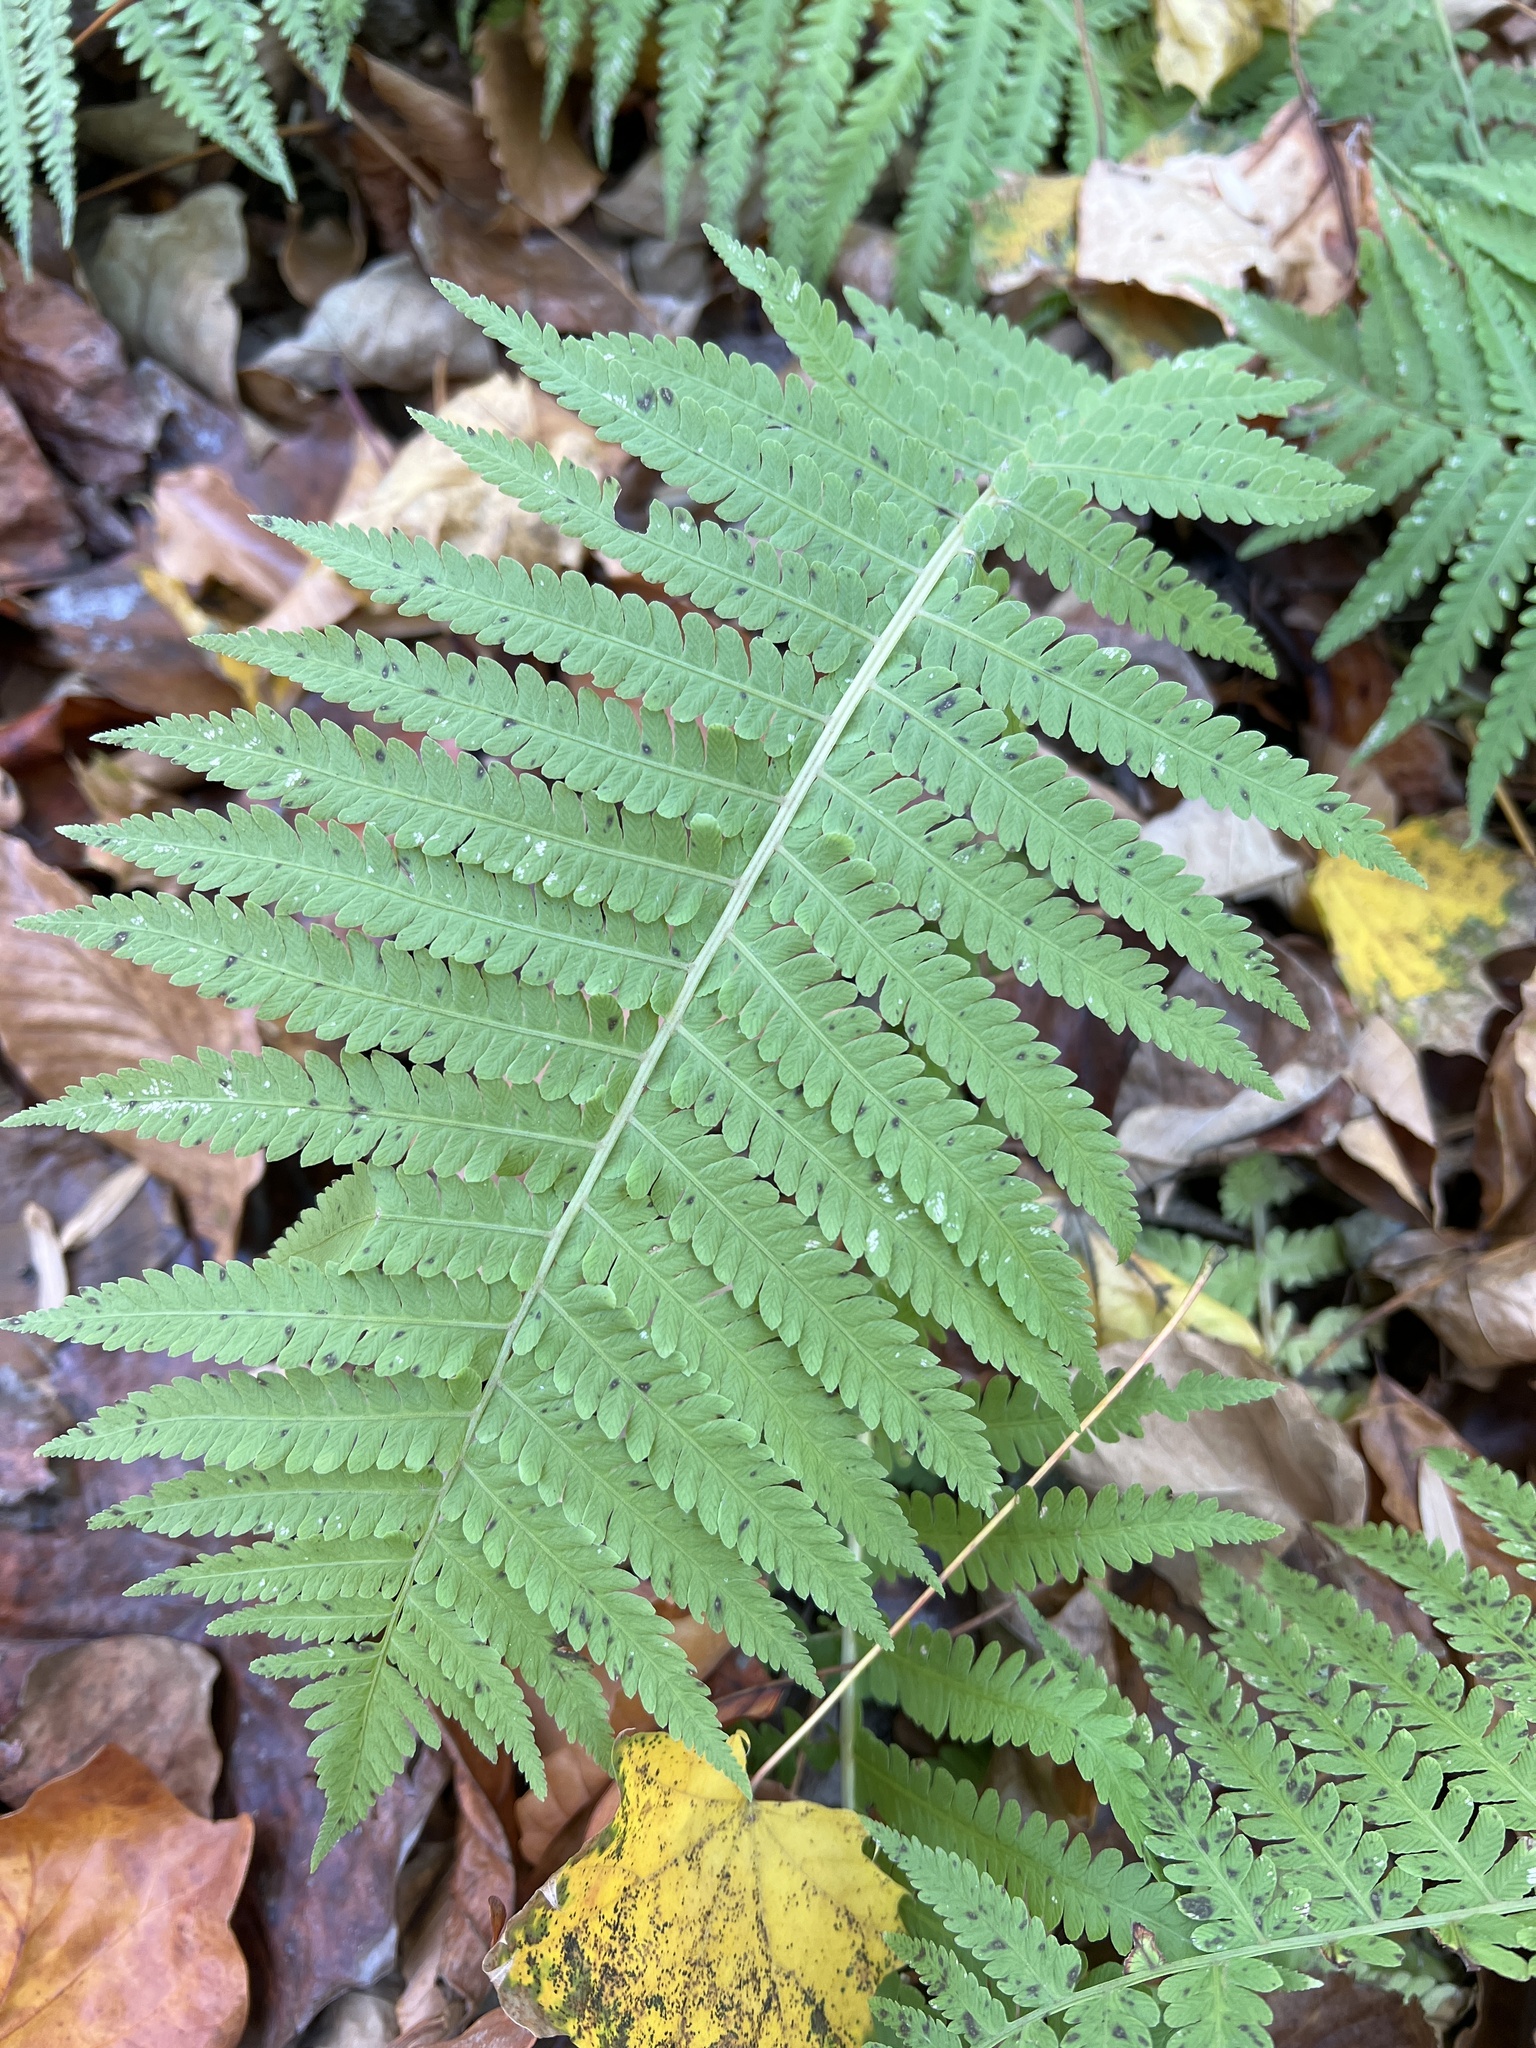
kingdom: Plantae
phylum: Tracheophyta
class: Polypodiopsida
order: Polypodiales
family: Onocleaceae
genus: Matteuccia
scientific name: Matteuccia struthiopteris
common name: Ostrich fern
